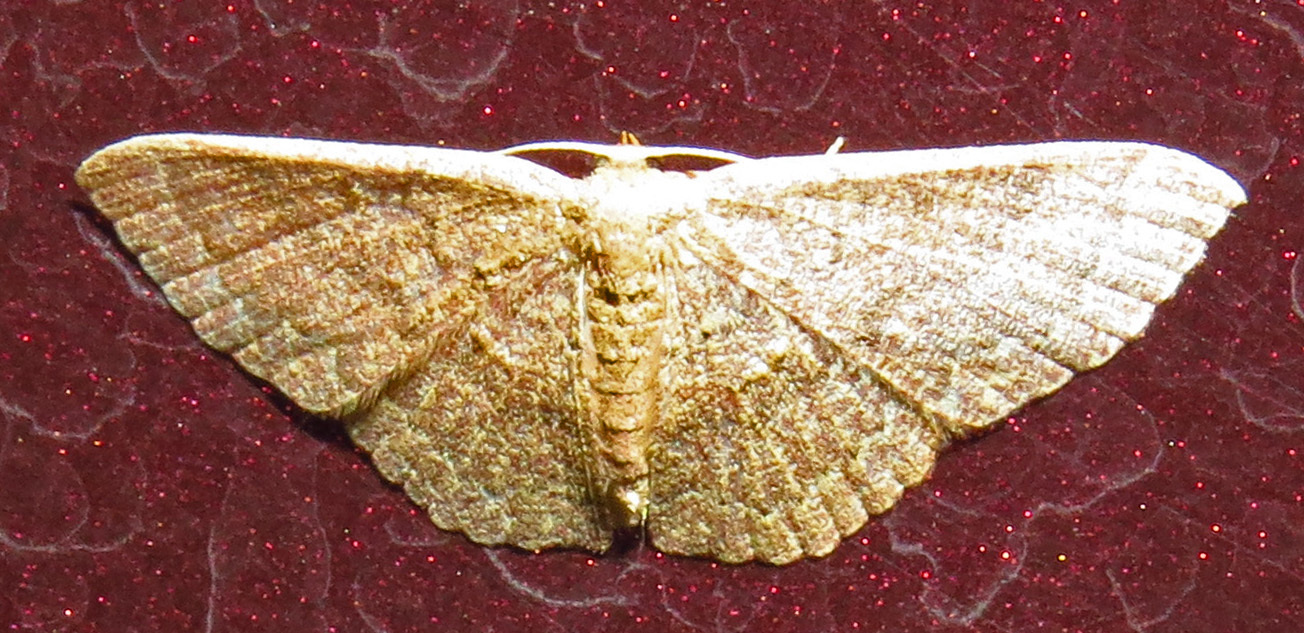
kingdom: Animalia
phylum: Arthropoda
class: Insecta
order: Lepidoptera
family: Geometridae
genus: Pleuroprucha
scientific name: Pleuroprucha insulsaria
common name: Common tan wave
